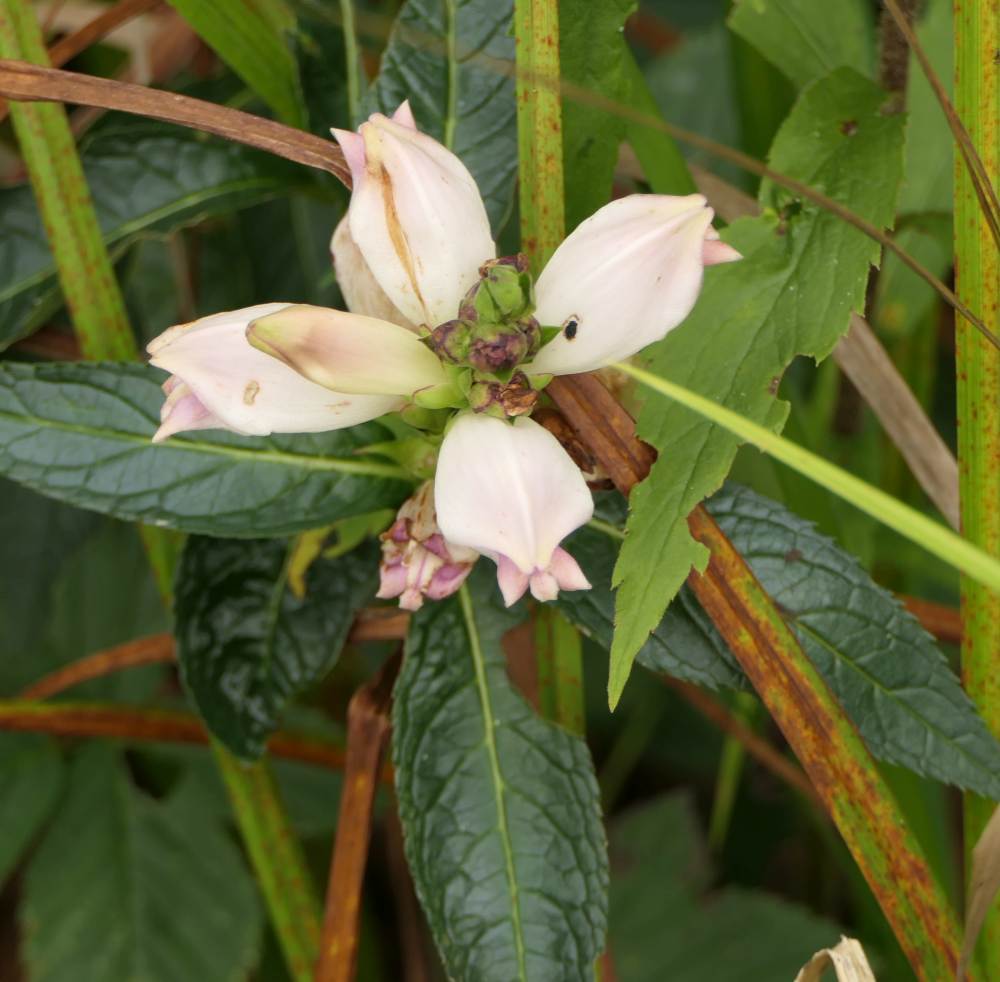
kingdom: Plantae
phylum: Tracheophyta
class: Magnoliopsida
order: Lamiales
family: Plantaginaceae
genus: Chelone
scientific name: Chelone glabra
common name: Snakehead
